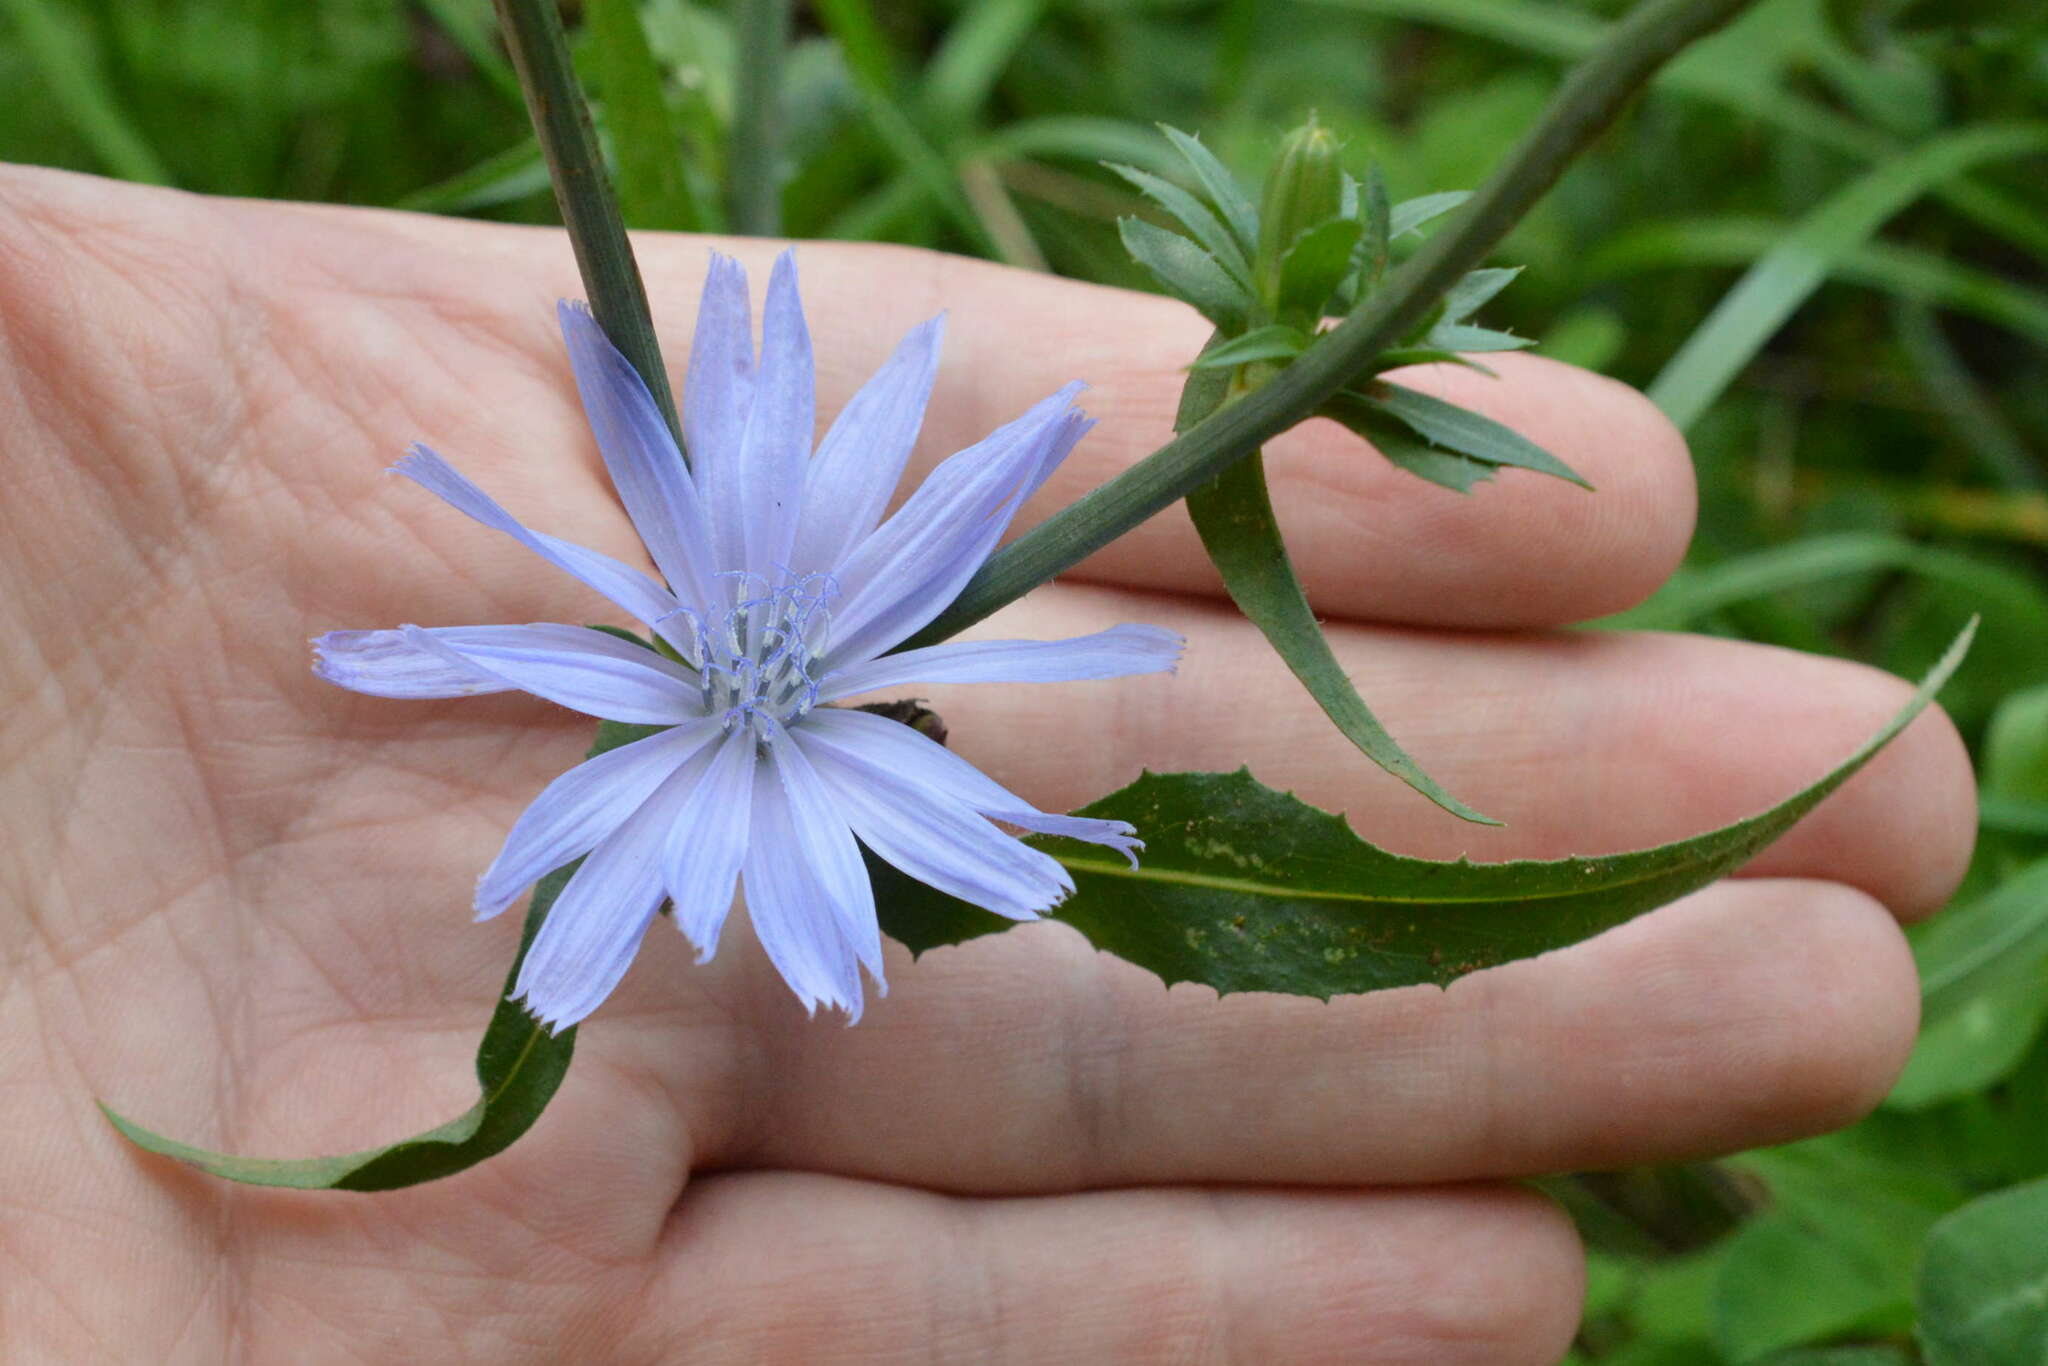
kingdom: Plantae
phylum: Tracheophyta
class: Magnoliopsida
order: Asterales
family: Asteraceae
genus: Cichorium
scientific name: Cichorium intybus
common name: Chicory
